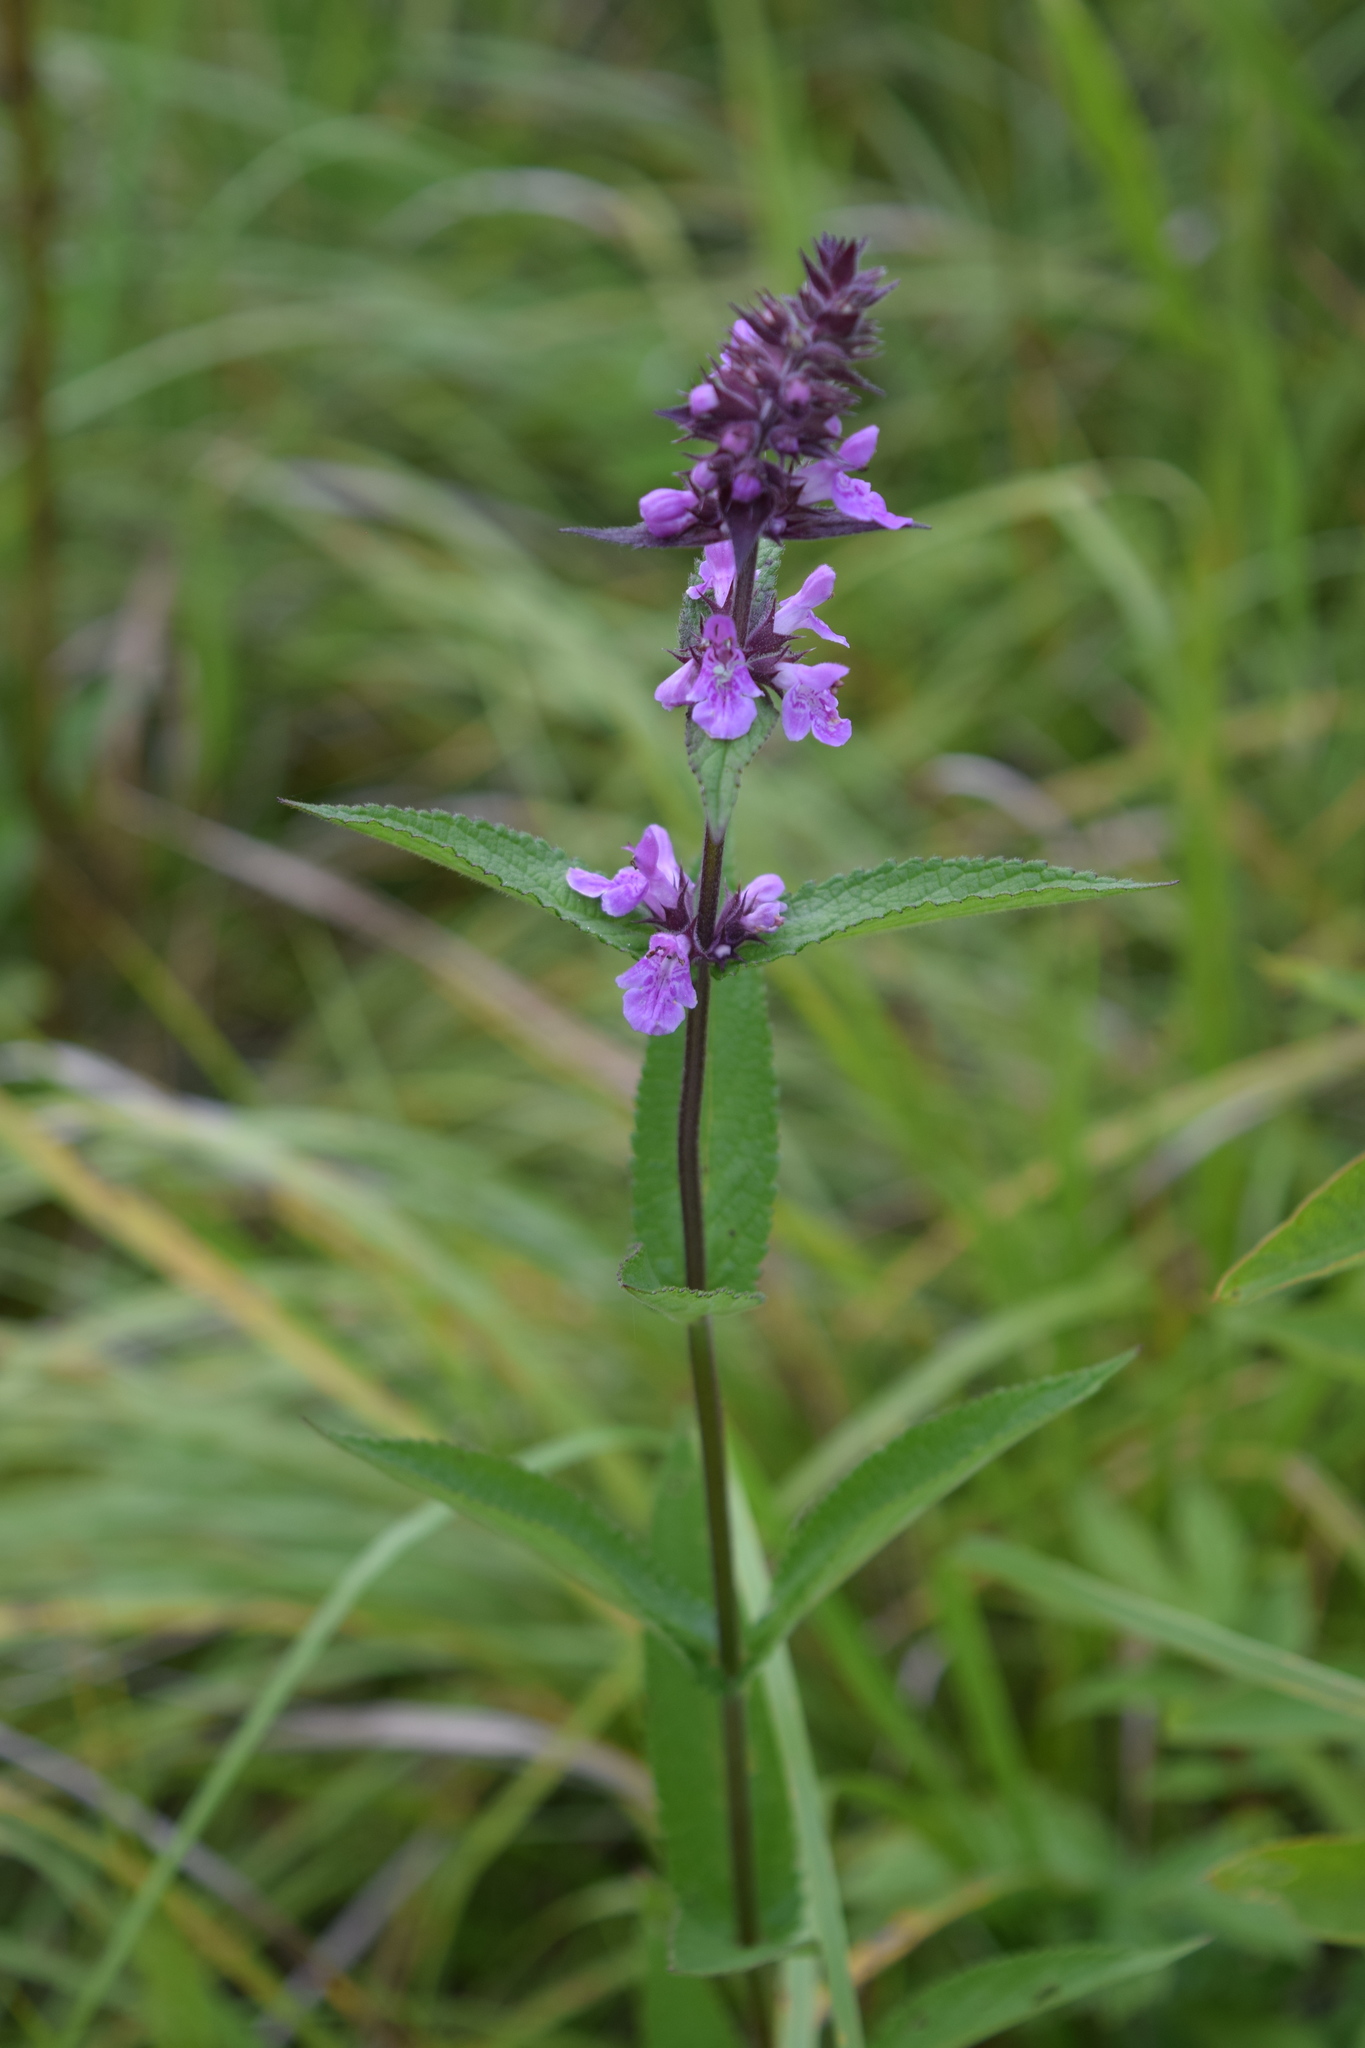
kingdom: Plantae
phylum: Tracheophyta
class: Magnoliopsida
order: Lamiales
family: Lamiaceae
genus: Stachys
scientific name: Stachys palustris
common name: Marsh woundwort
